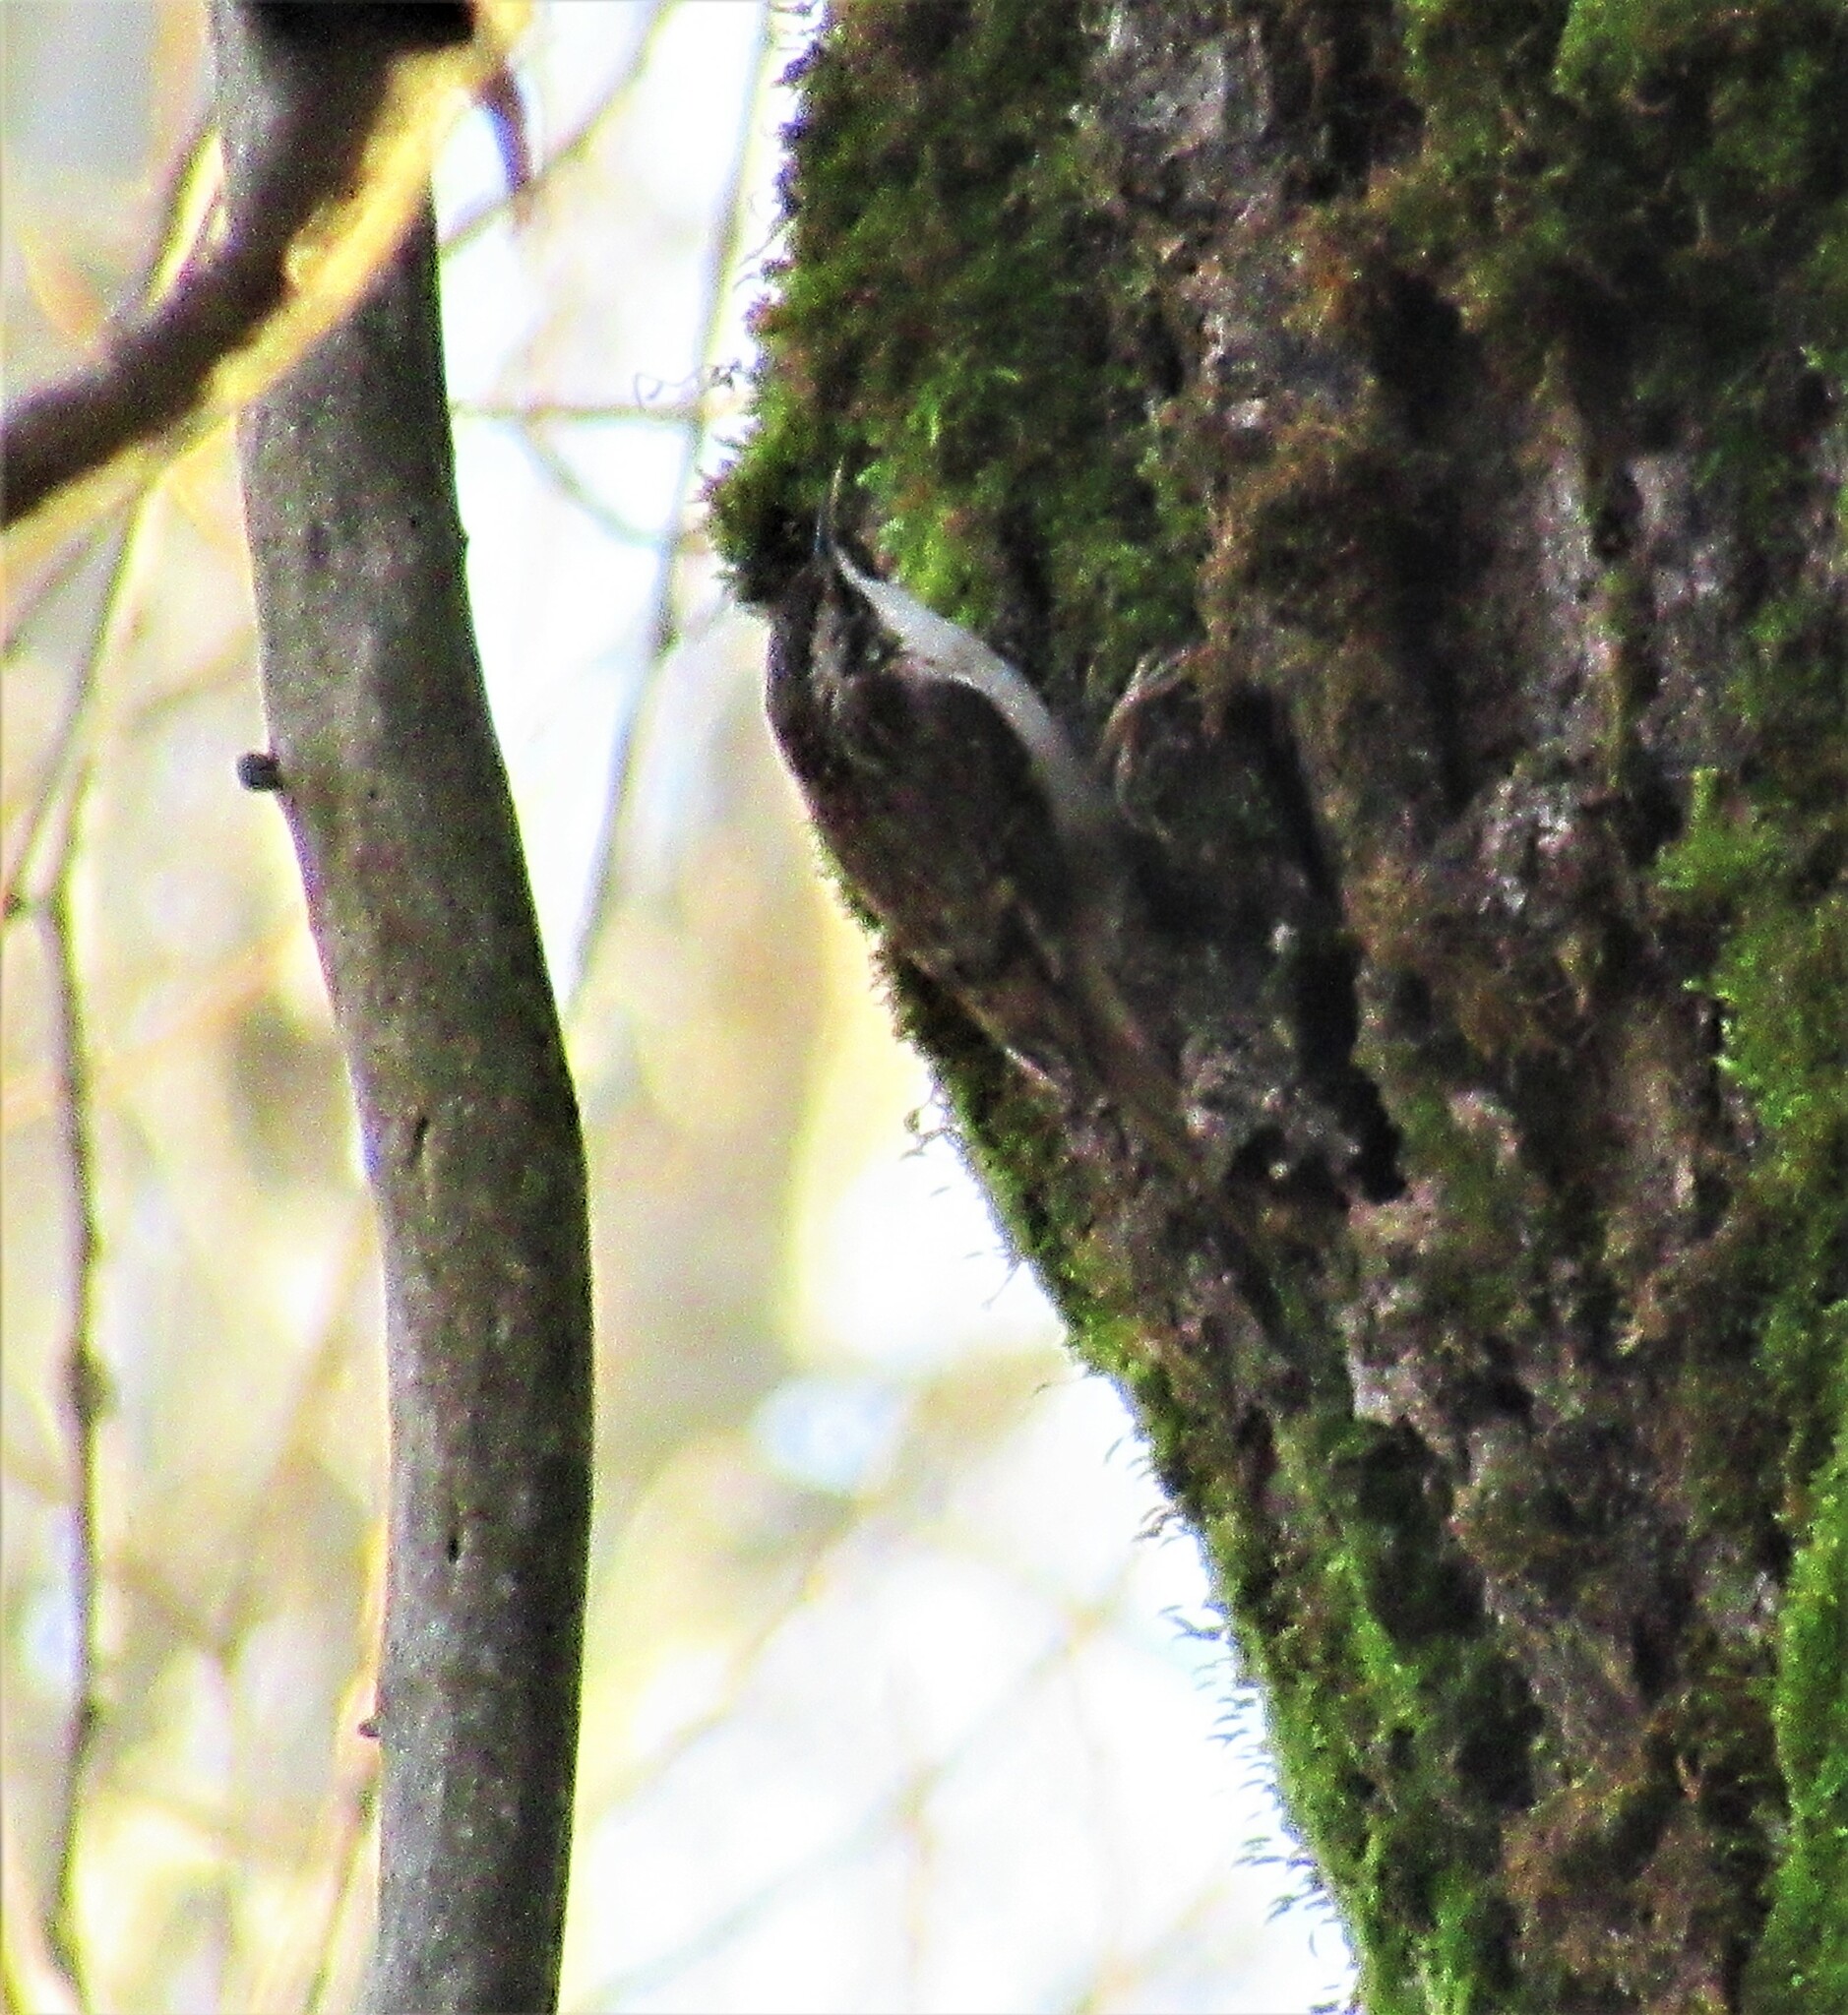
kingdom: Animalia
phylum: Chordata
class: Aves
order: Passeriformes
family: Certhiidae
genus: Certhia
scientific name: Certhia americana
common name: Brown creeper
